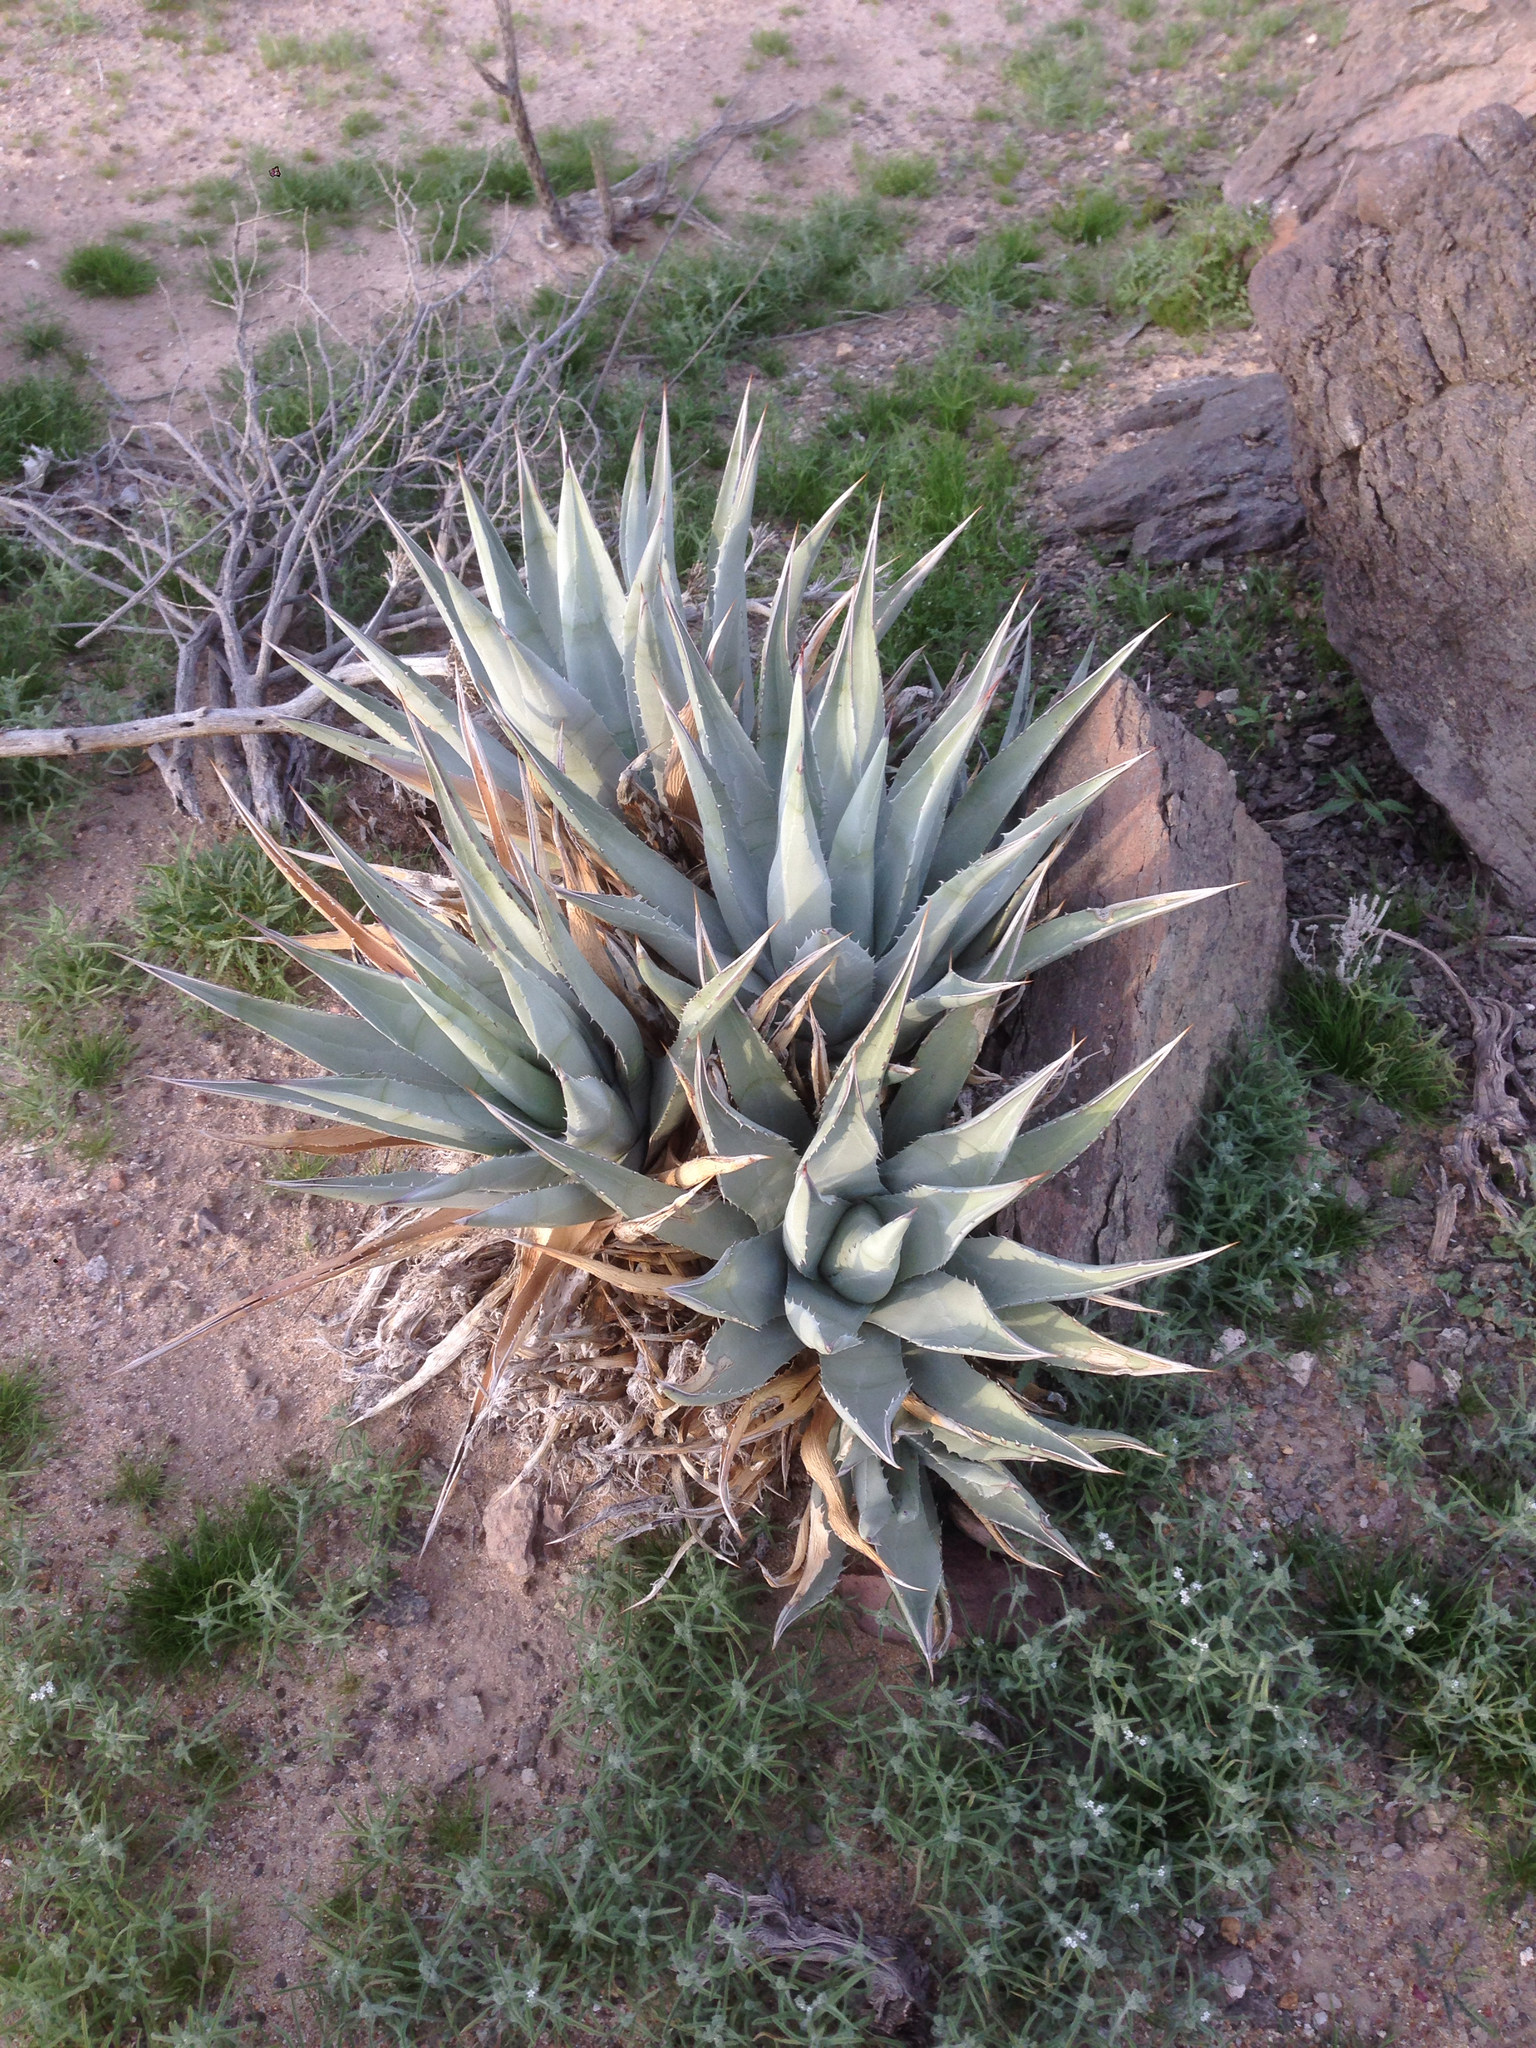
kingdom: Plantae
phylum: Tracheophyta
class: Liliopsida
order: Asparagales
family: Asparagaceae
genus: Agave
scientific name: Agave deserti
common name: Desert agave
